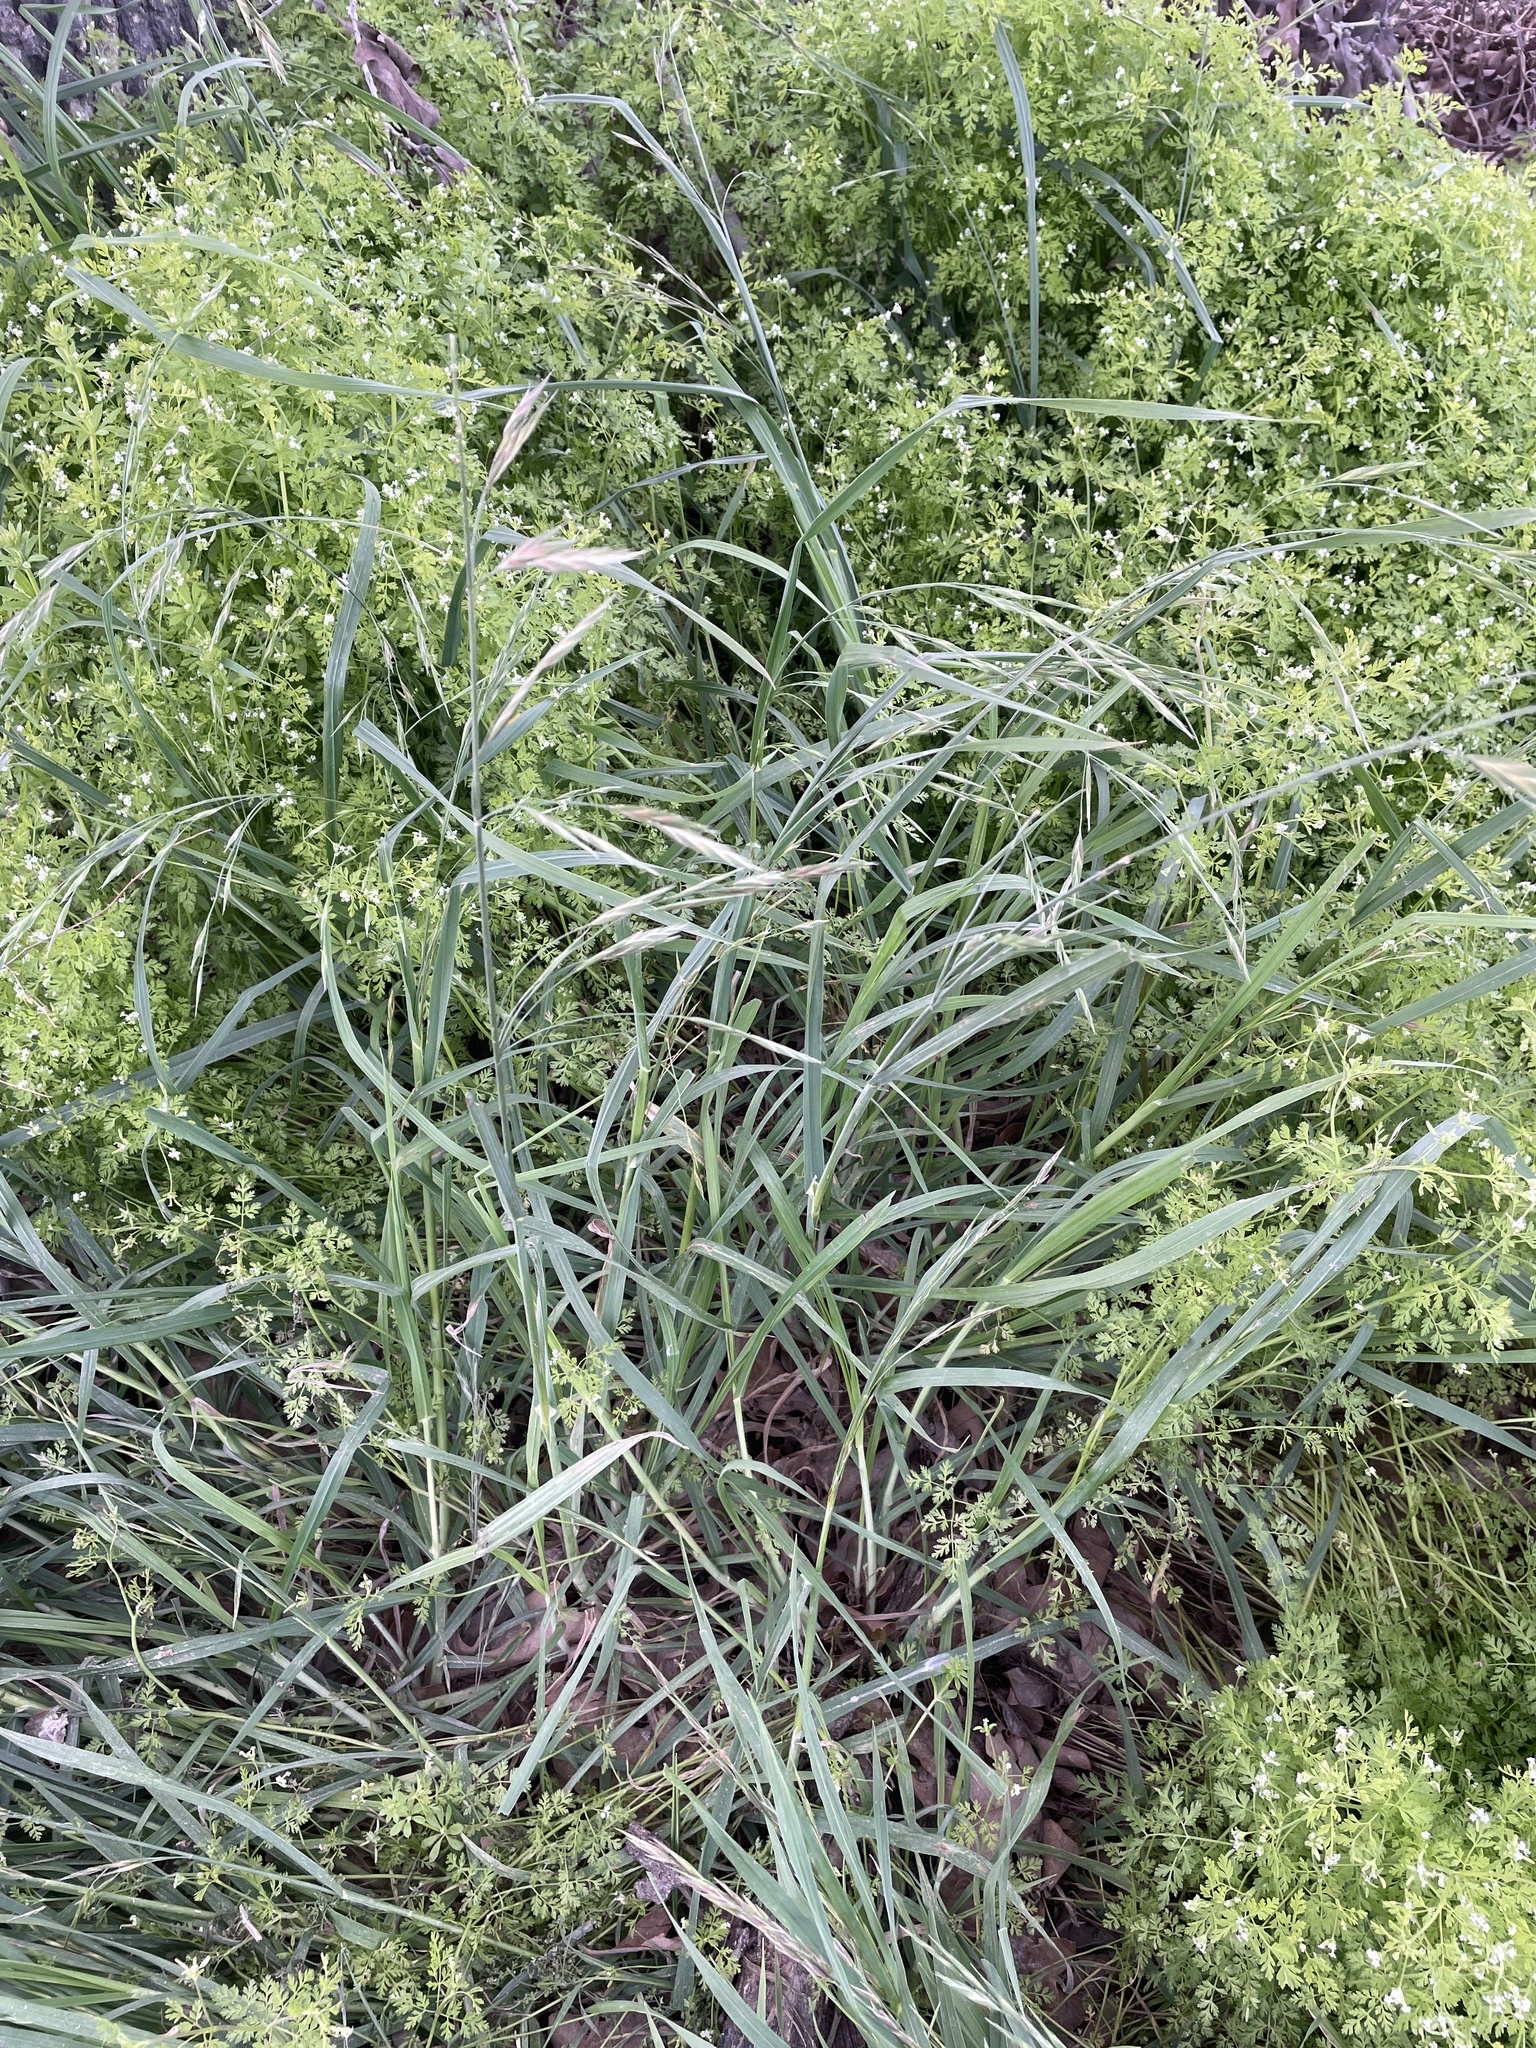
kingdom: Plantae
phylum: Tracheophyta
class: Liliopsida
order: Poales
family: Poaceae
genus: Bromus
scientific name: Bromus catharticus
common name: Rescuegrass
